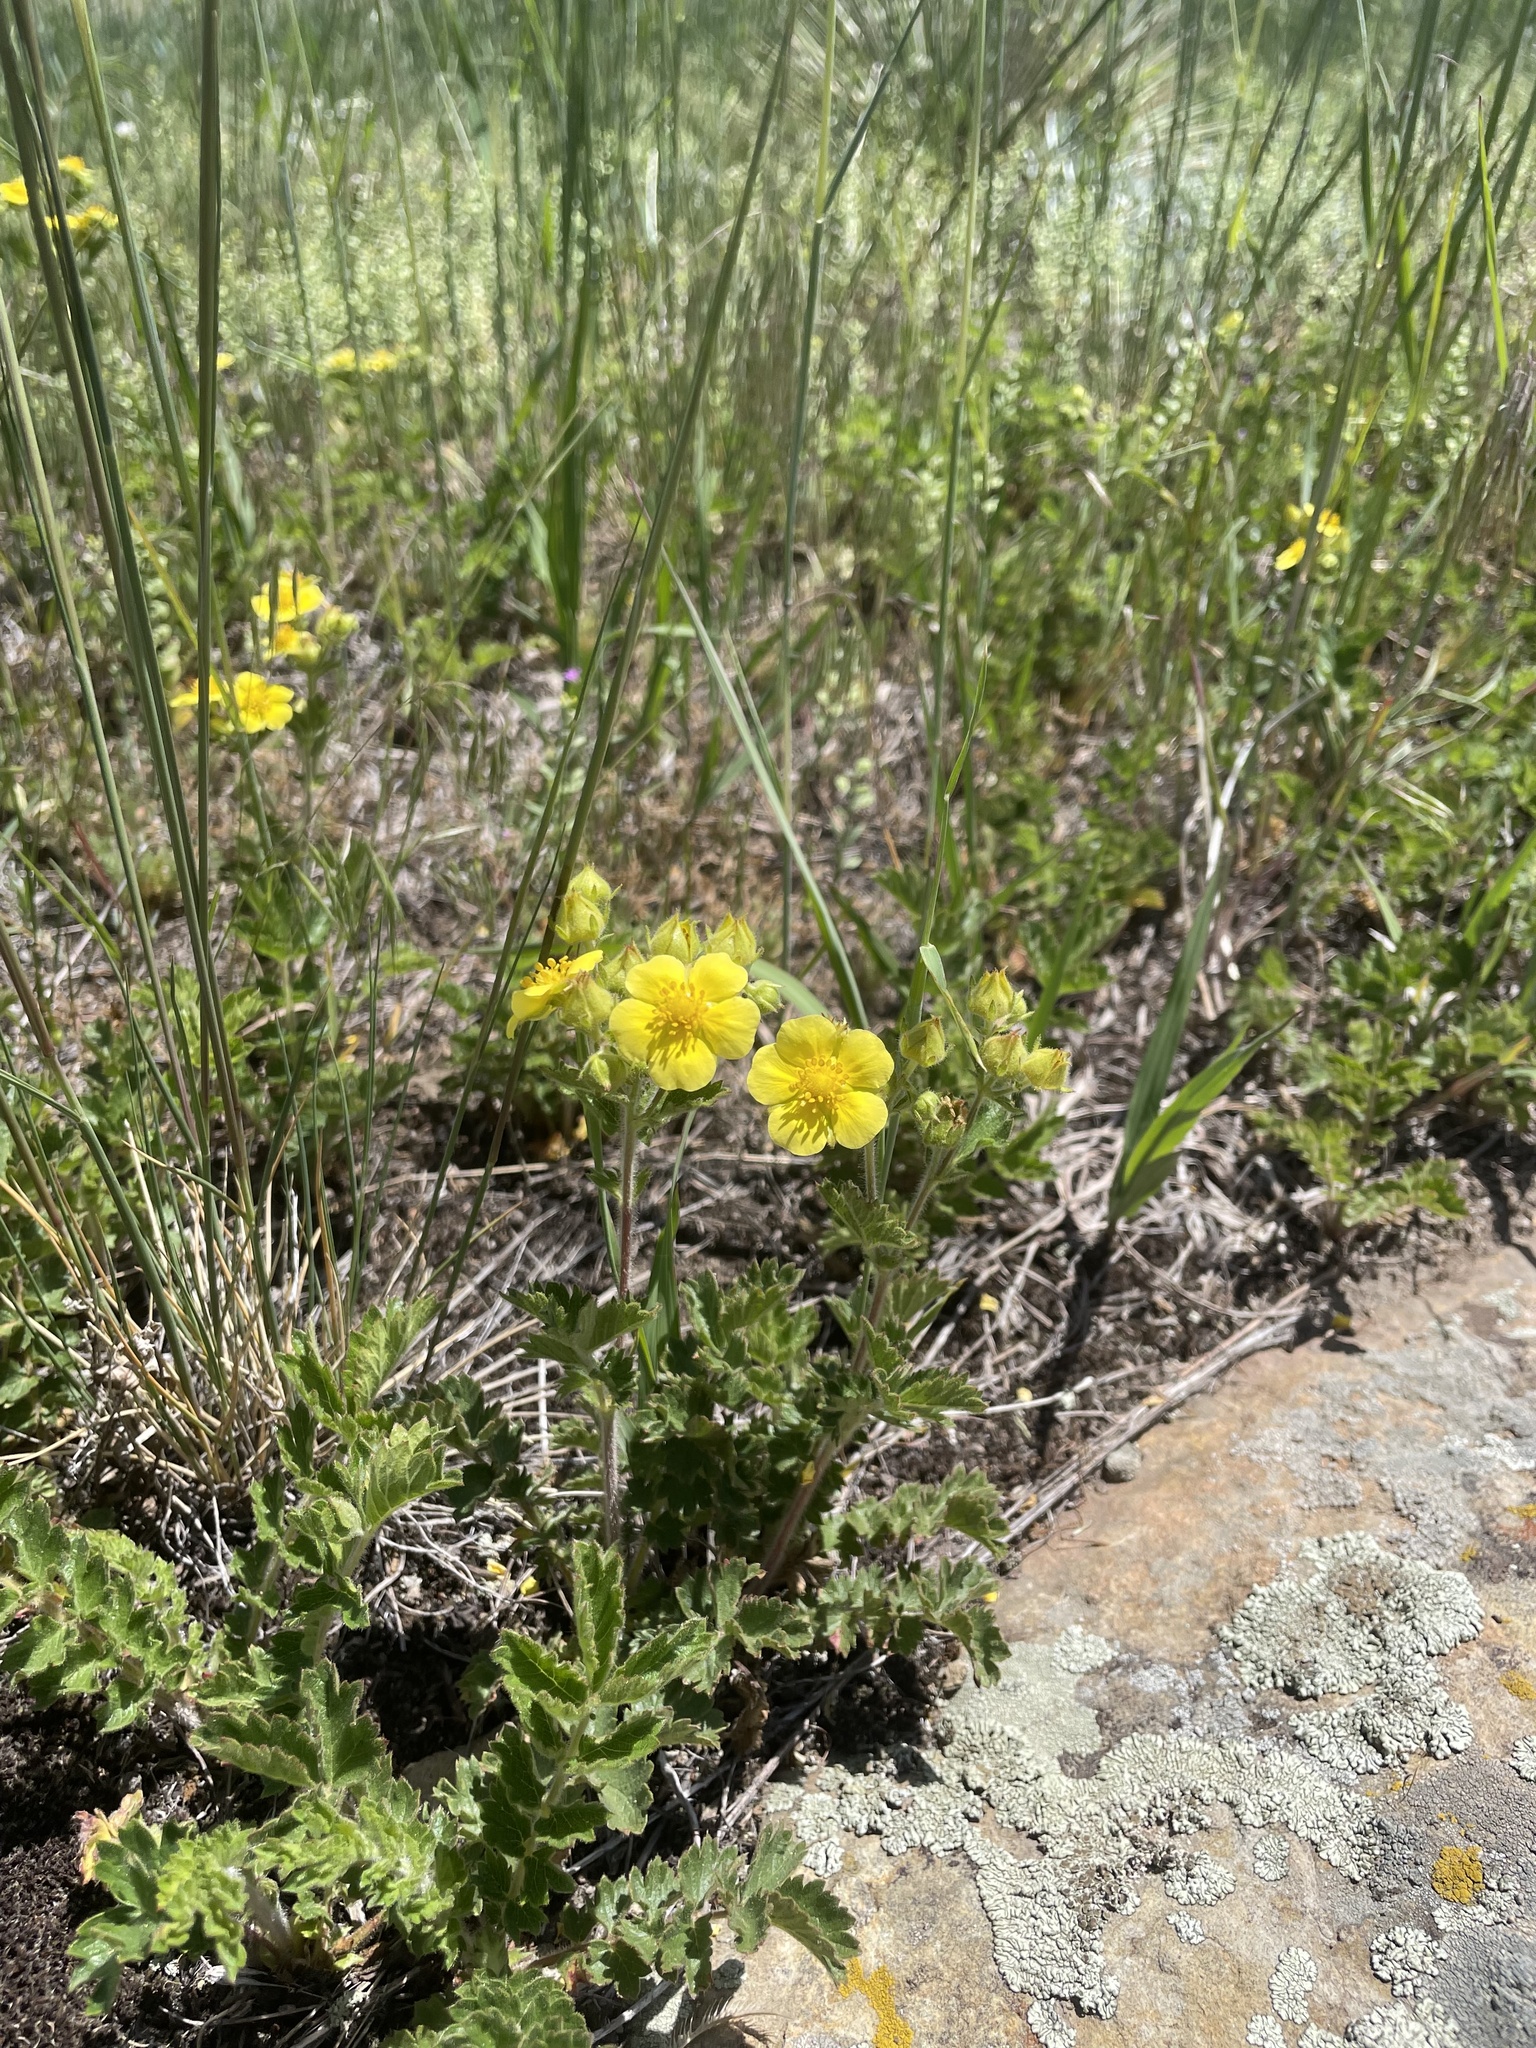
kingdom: Plantae
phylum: Tracheophyta
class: Magnoliopsida
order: Rosales
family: Rosaceae
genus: Drymocallis
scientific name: Drymocallis fissa
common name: Big-flowered cinquefoil
